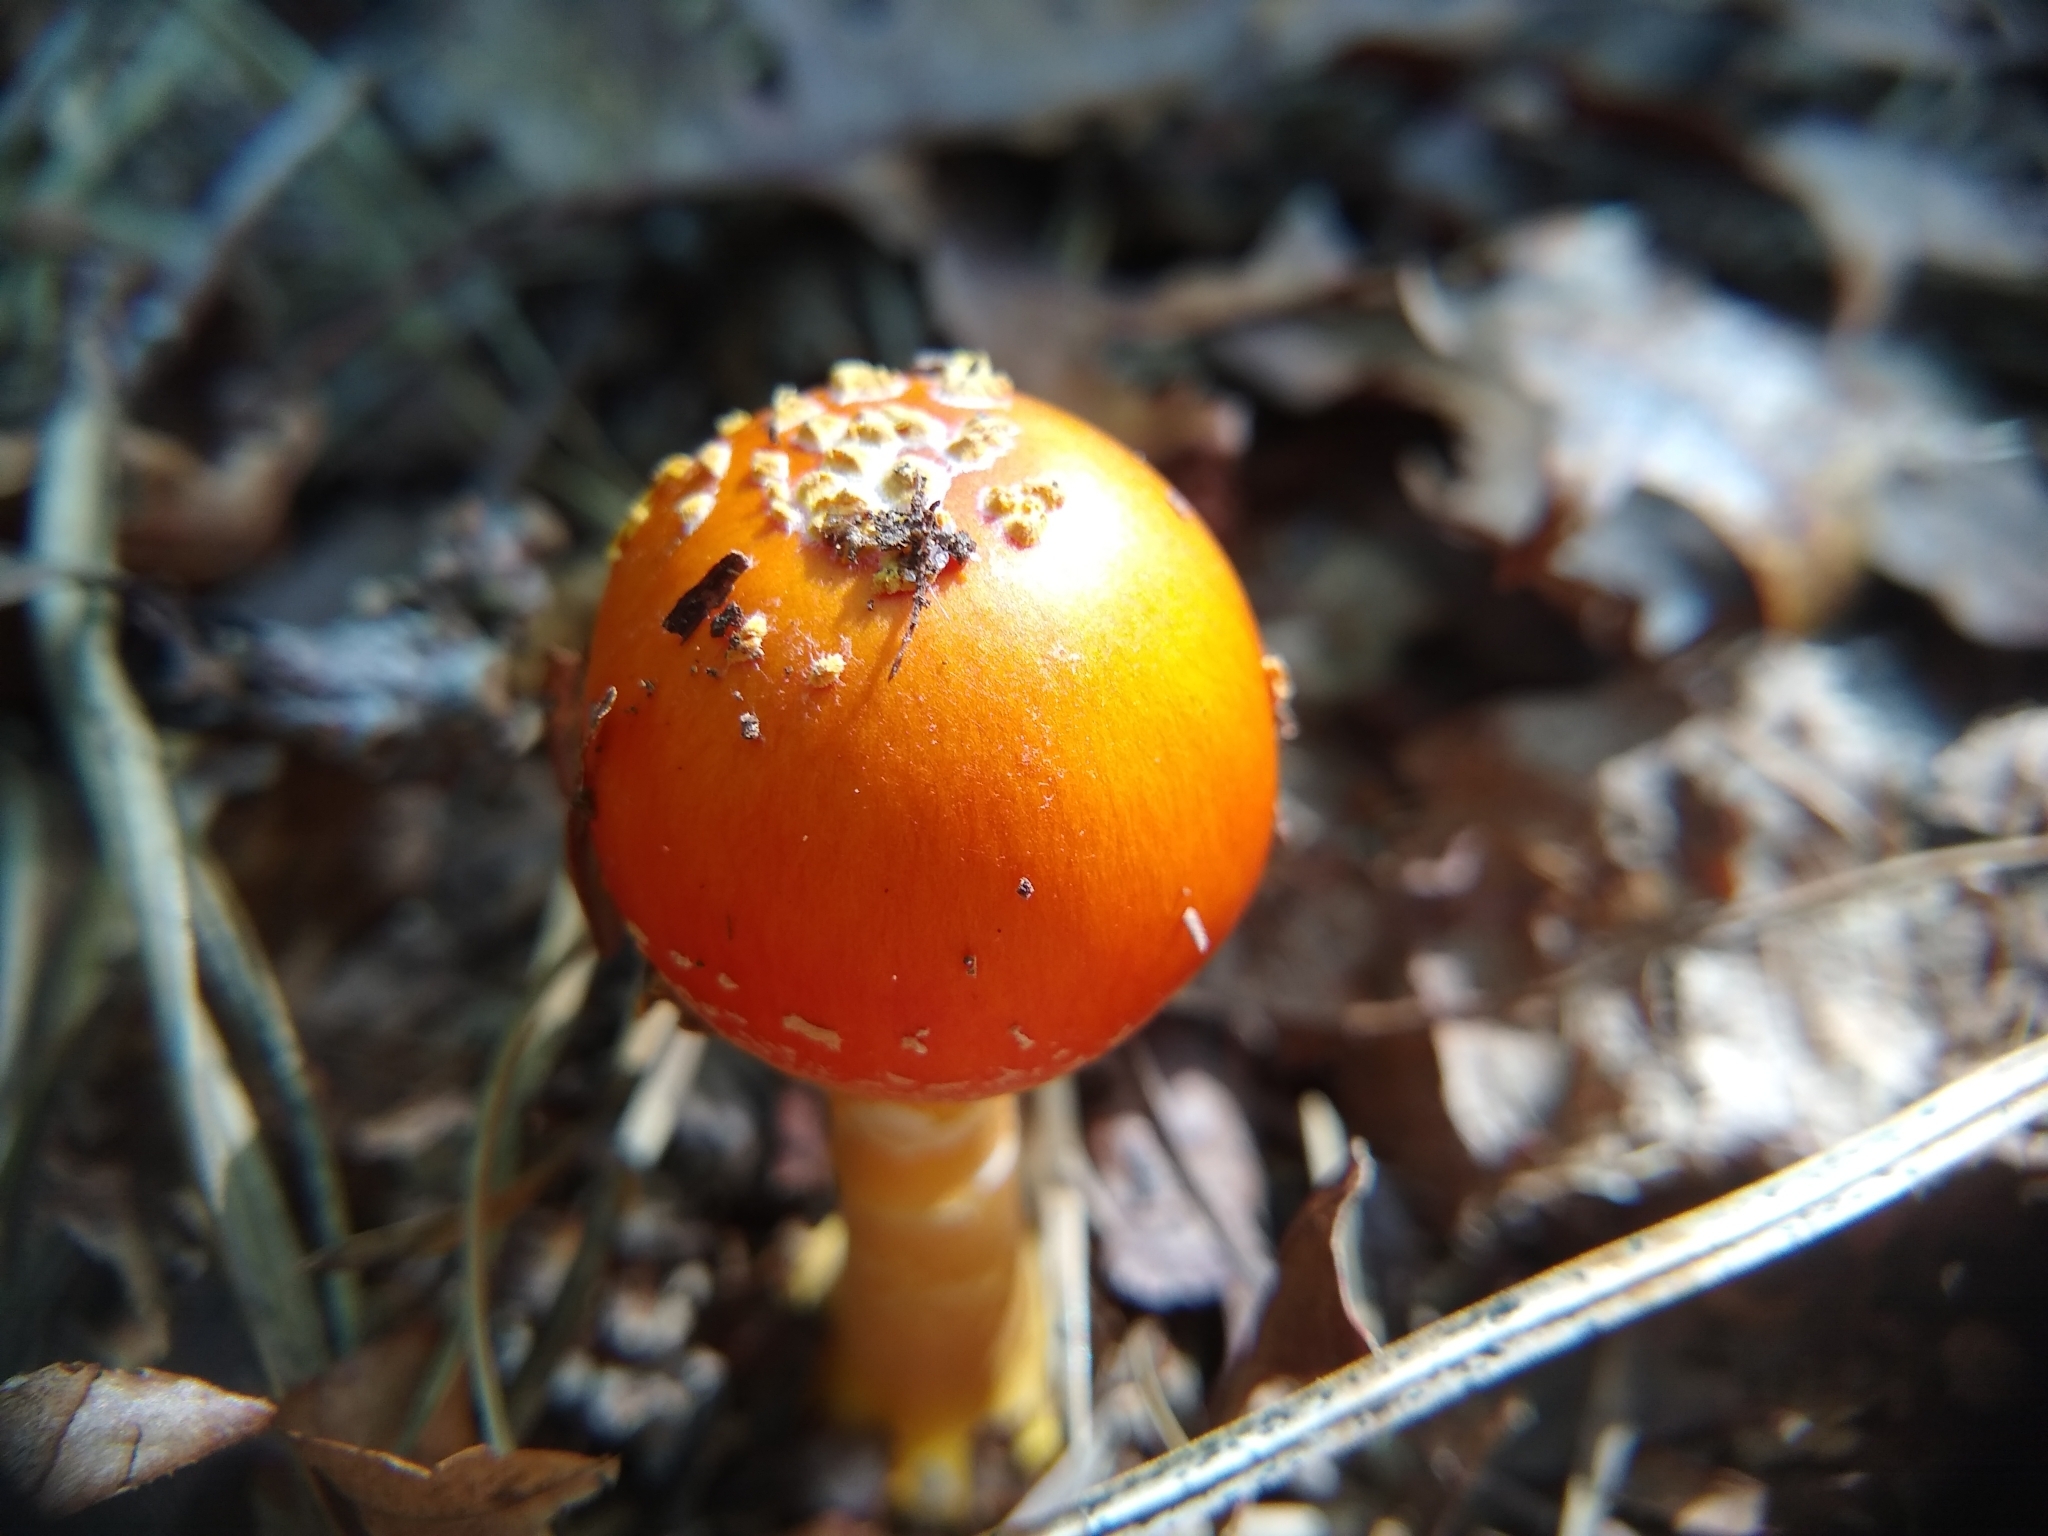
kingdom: Fungi
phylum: Basidiomycota
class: Agaricomycetes
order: Agaricales
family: Amanitaceae
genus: Amanita
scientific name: Amanita flavoconia
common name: Yellow patches
